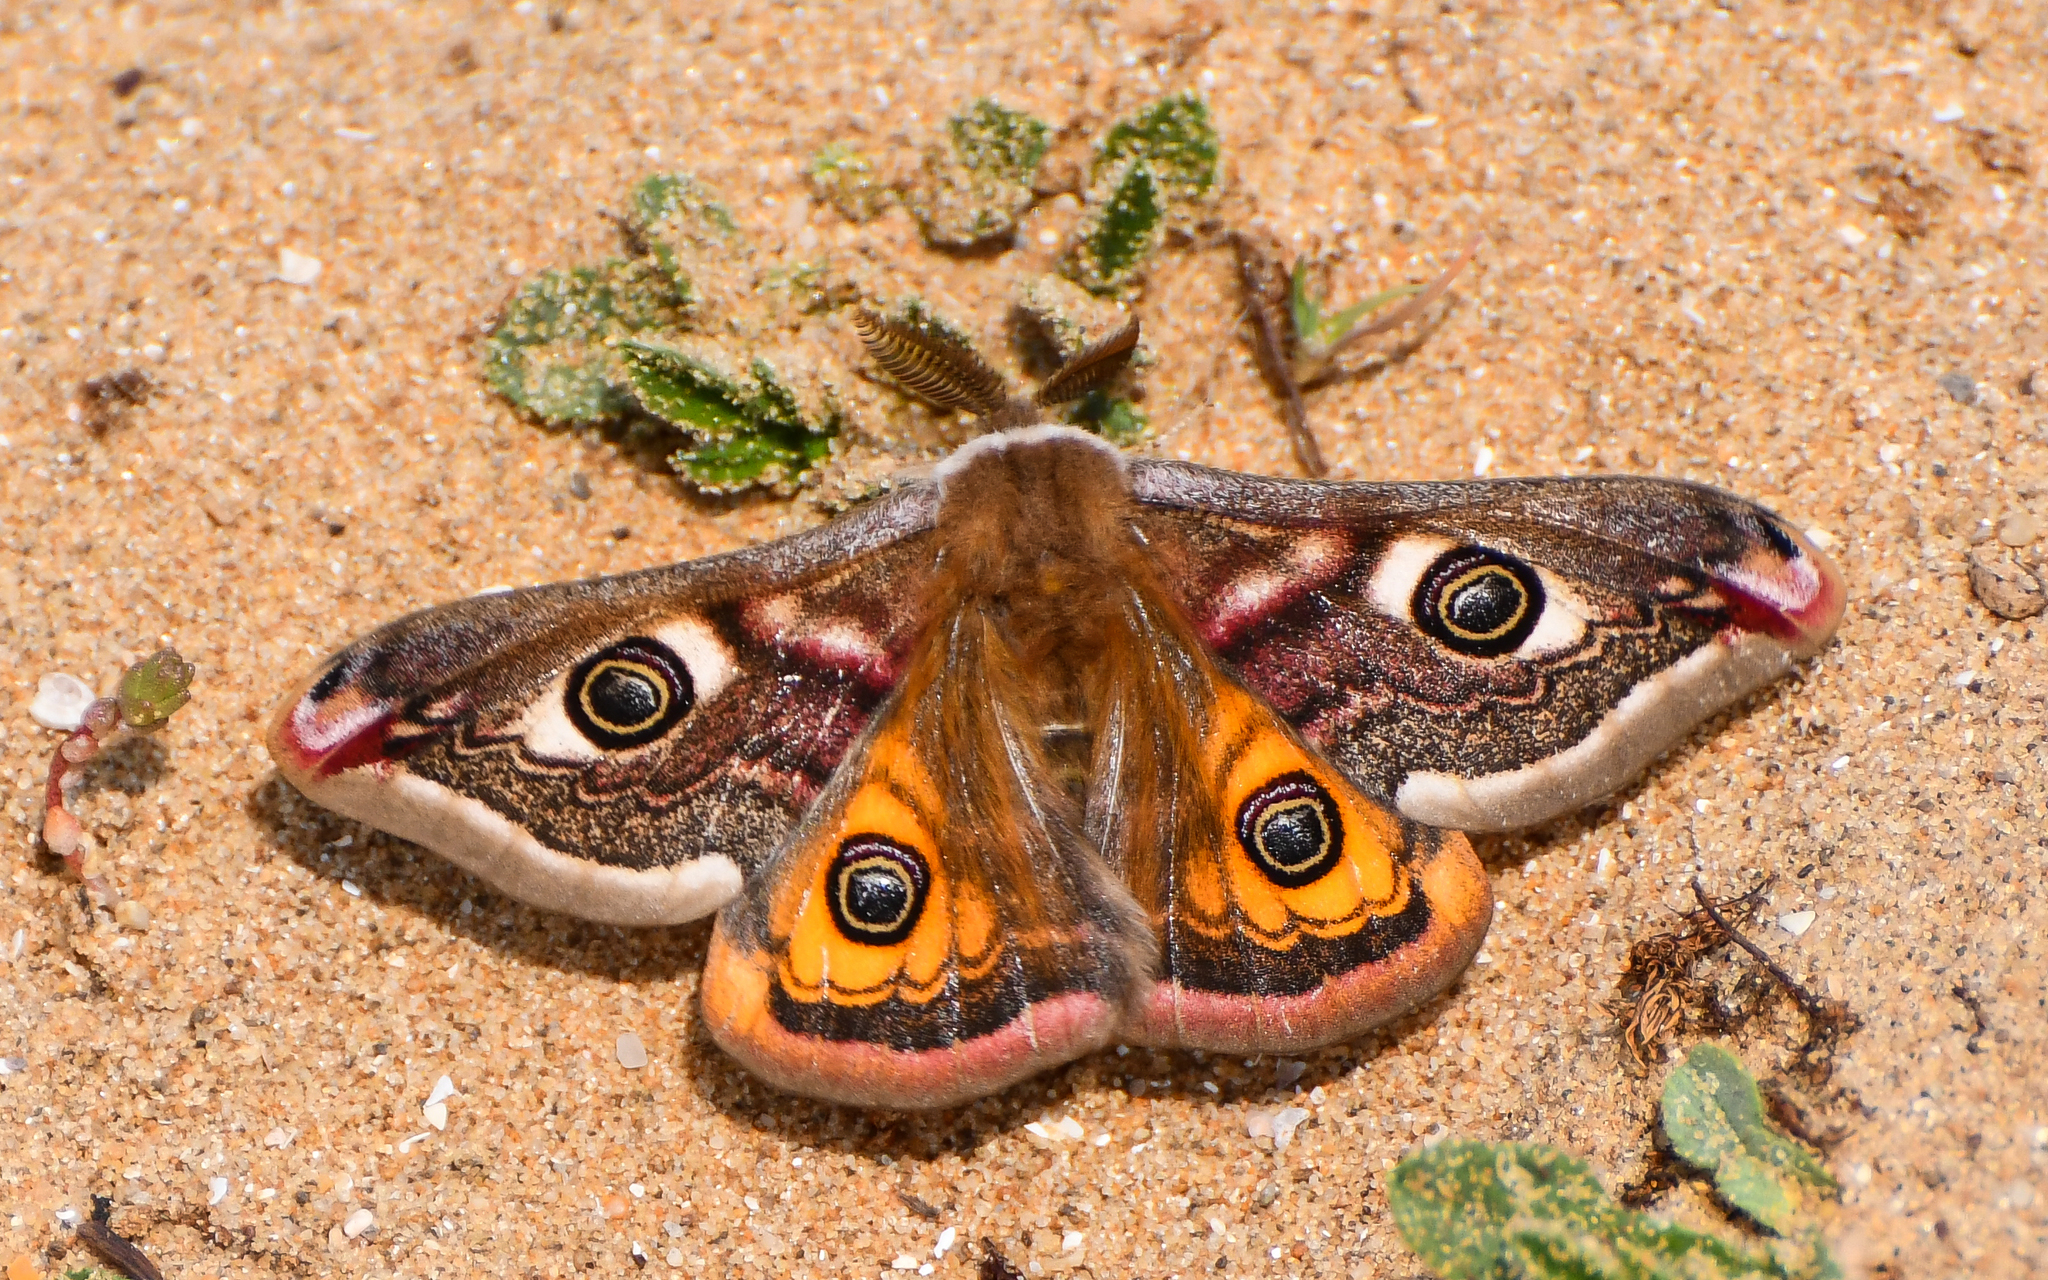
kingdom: Animalia
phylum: Arthropoda
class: Insecta
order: Lepidoptera
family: Saturniidae
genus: Saturnia
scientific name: Saturnia pavonia
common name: Emperor moth
